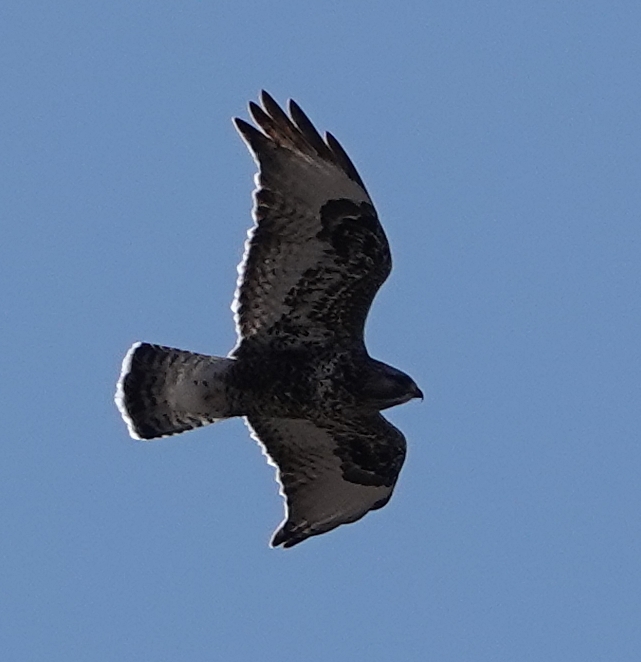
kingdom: Animalia
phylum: Chordata
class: Aves
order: Accipitriformes
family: Accipitridae
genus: Buteo
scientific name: Buteo lagopus
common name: Rough-legged buzzard
